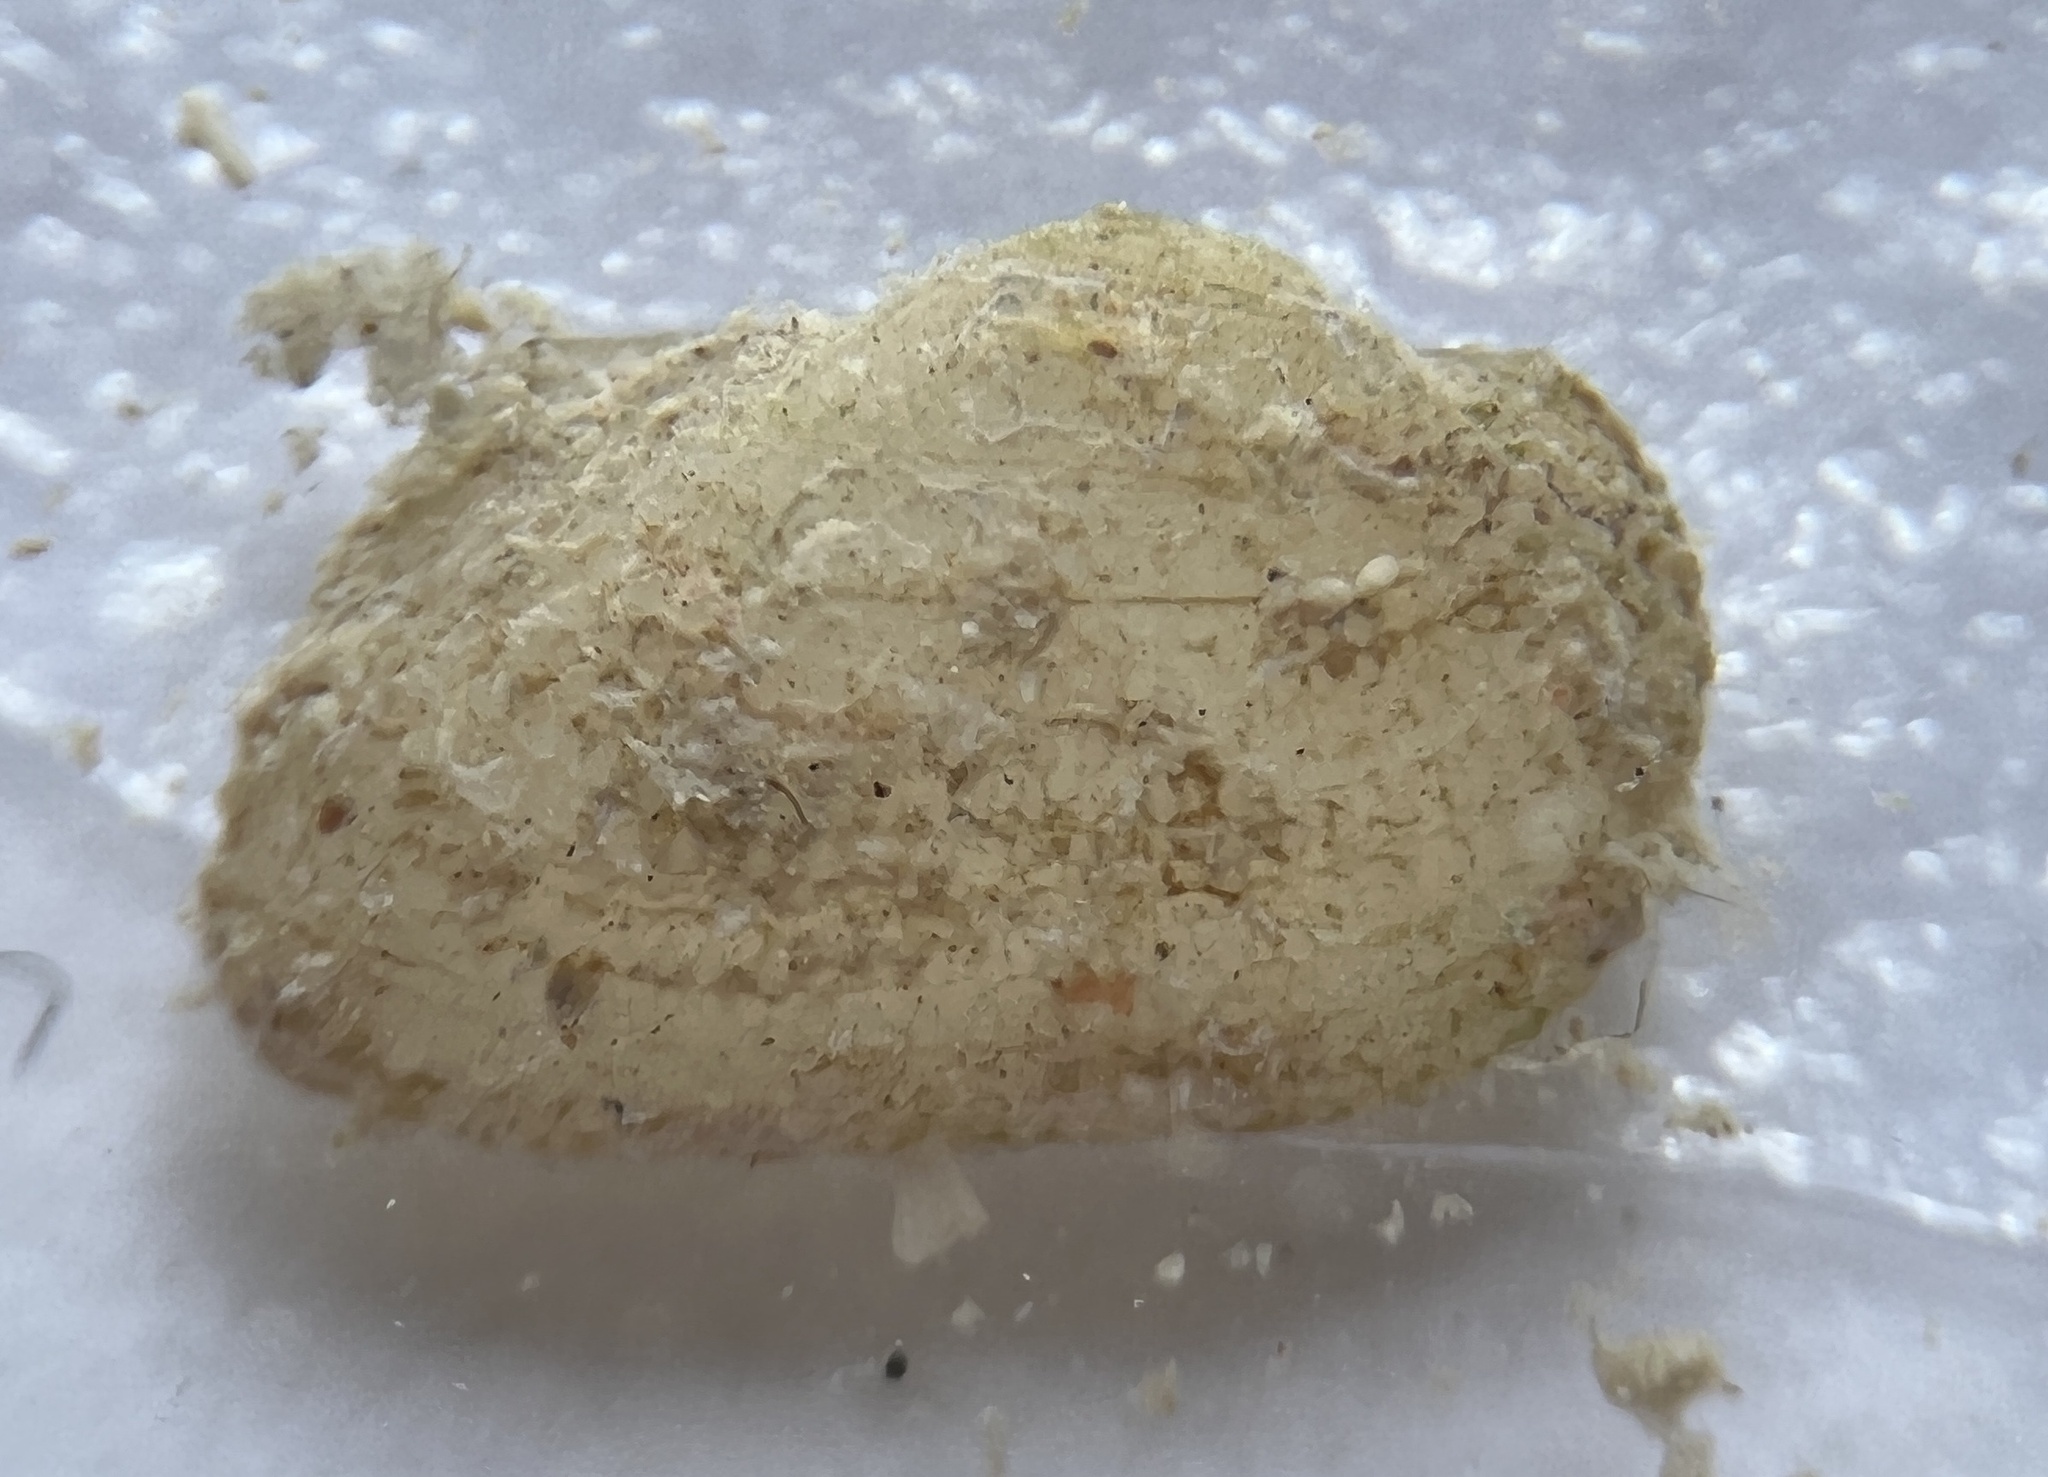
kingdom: Animalia
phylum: Mollusca
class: Bivalvia
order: Arcida
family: Noetiidae
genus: Arcopsis
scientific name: Arcopsis adamsi
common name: Cancellate miniature ark
